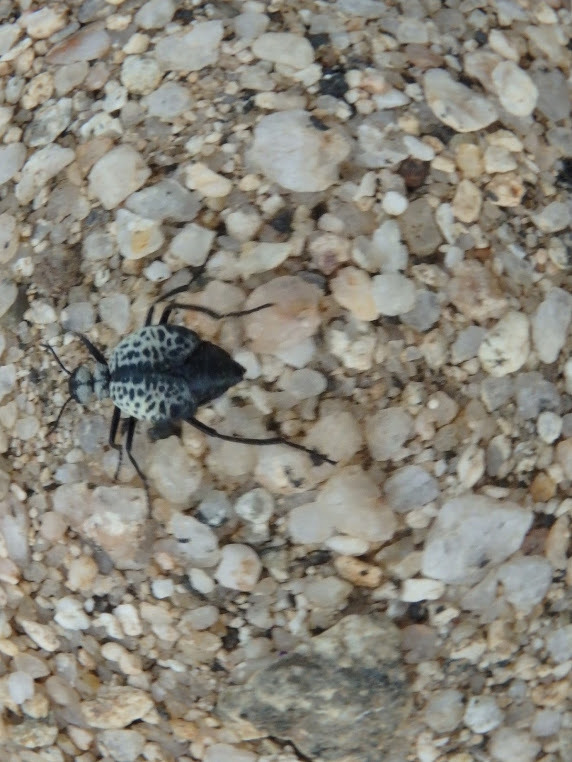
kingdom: Animalia
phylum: Arthropoda
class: Insecta
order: Coleoptera
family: Meloidae
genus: Cysteodemus
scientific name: Cysteodemus armatus
